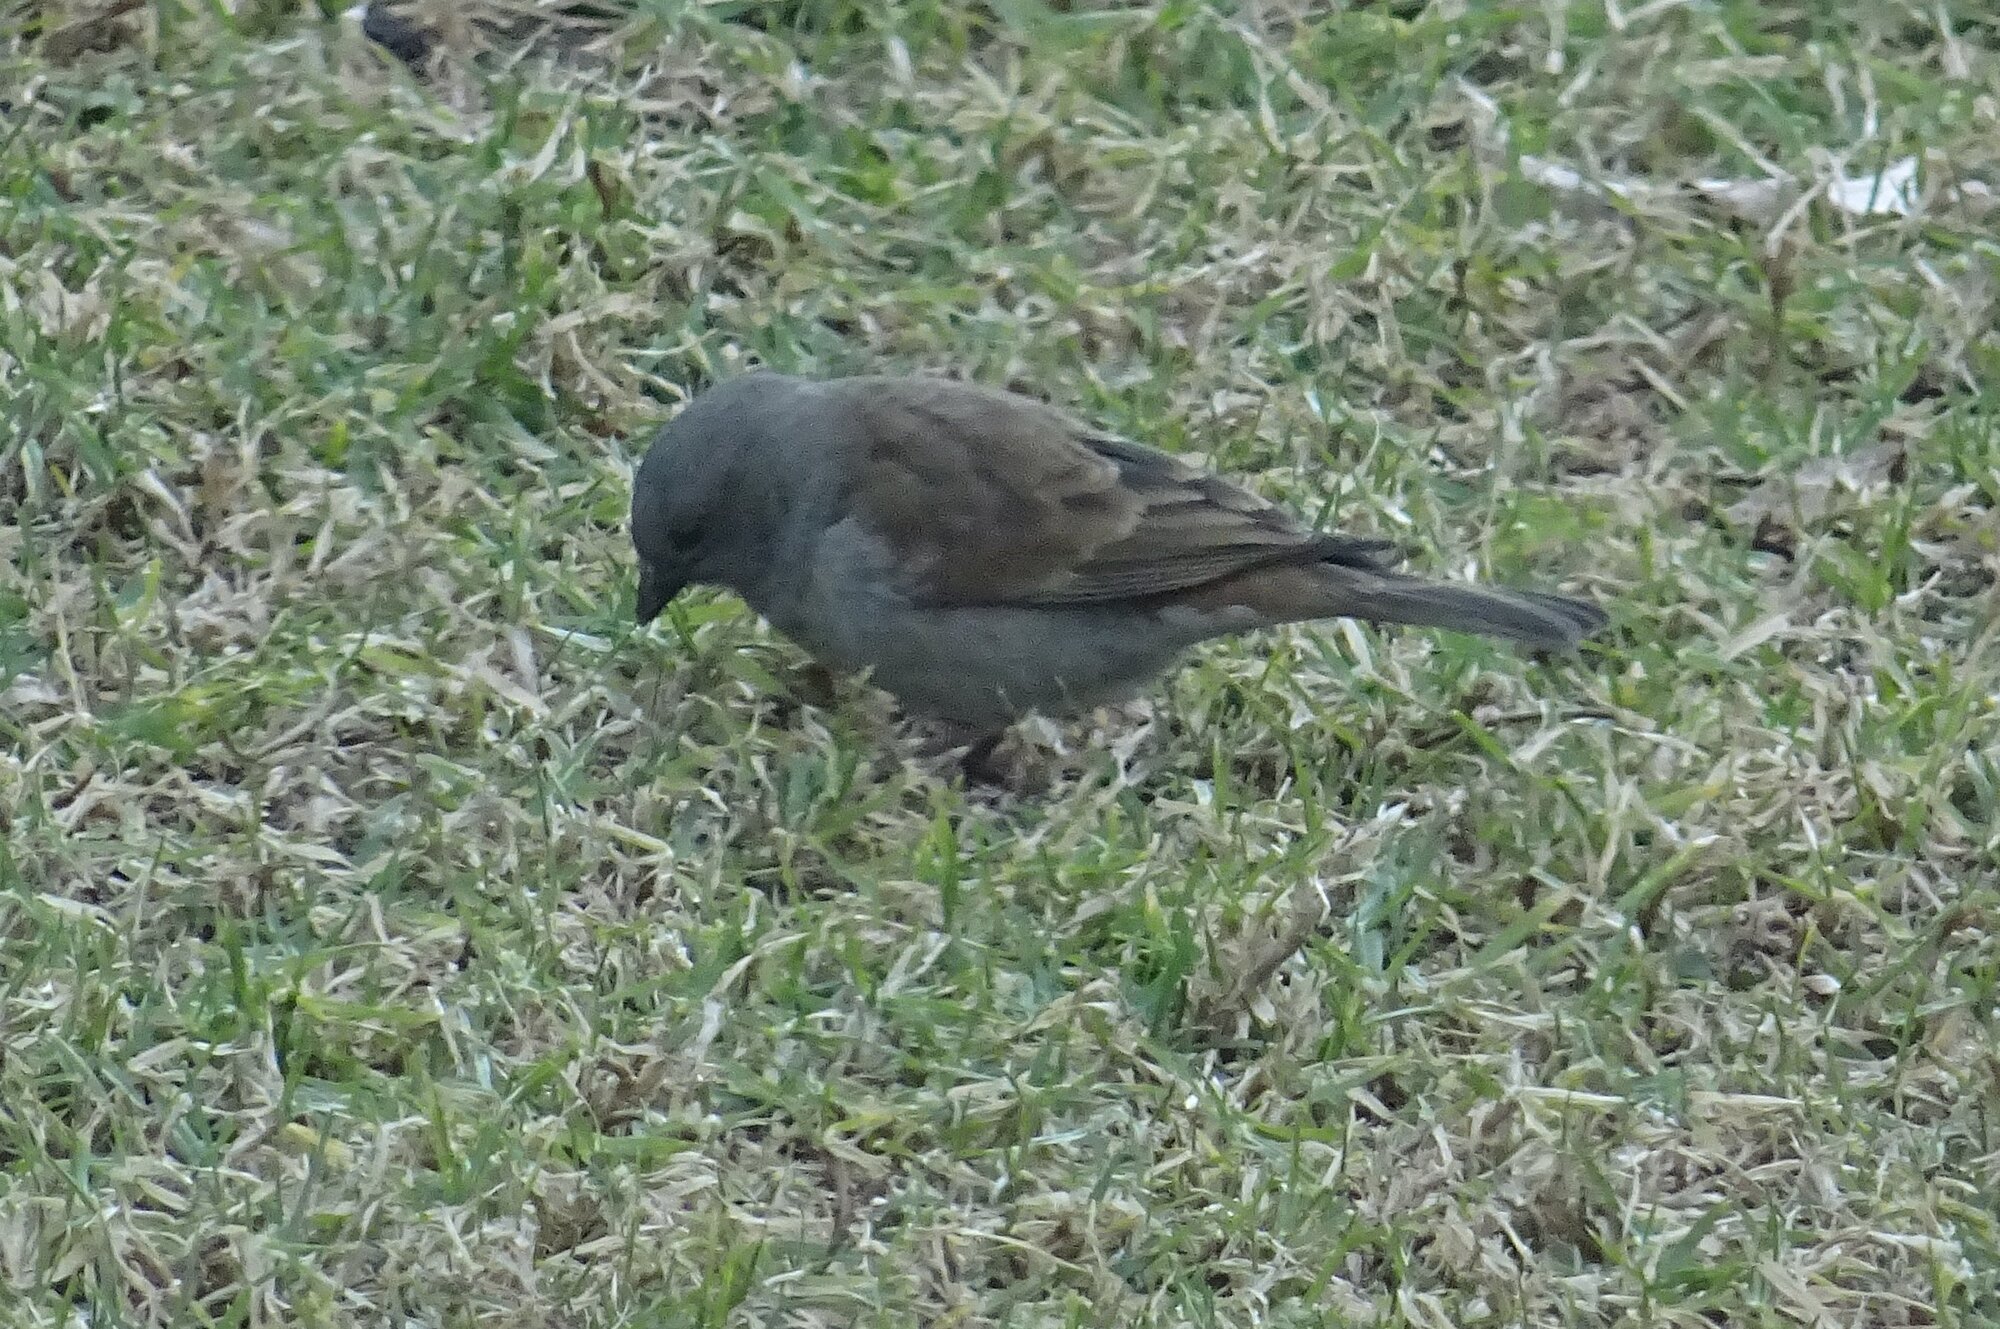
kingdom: Animalia
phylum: Chordata
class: Aves
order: Passeriformes
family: Passeridae
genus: Passer
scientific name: Passer diffusus
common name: Southern grey-headed sparrow
